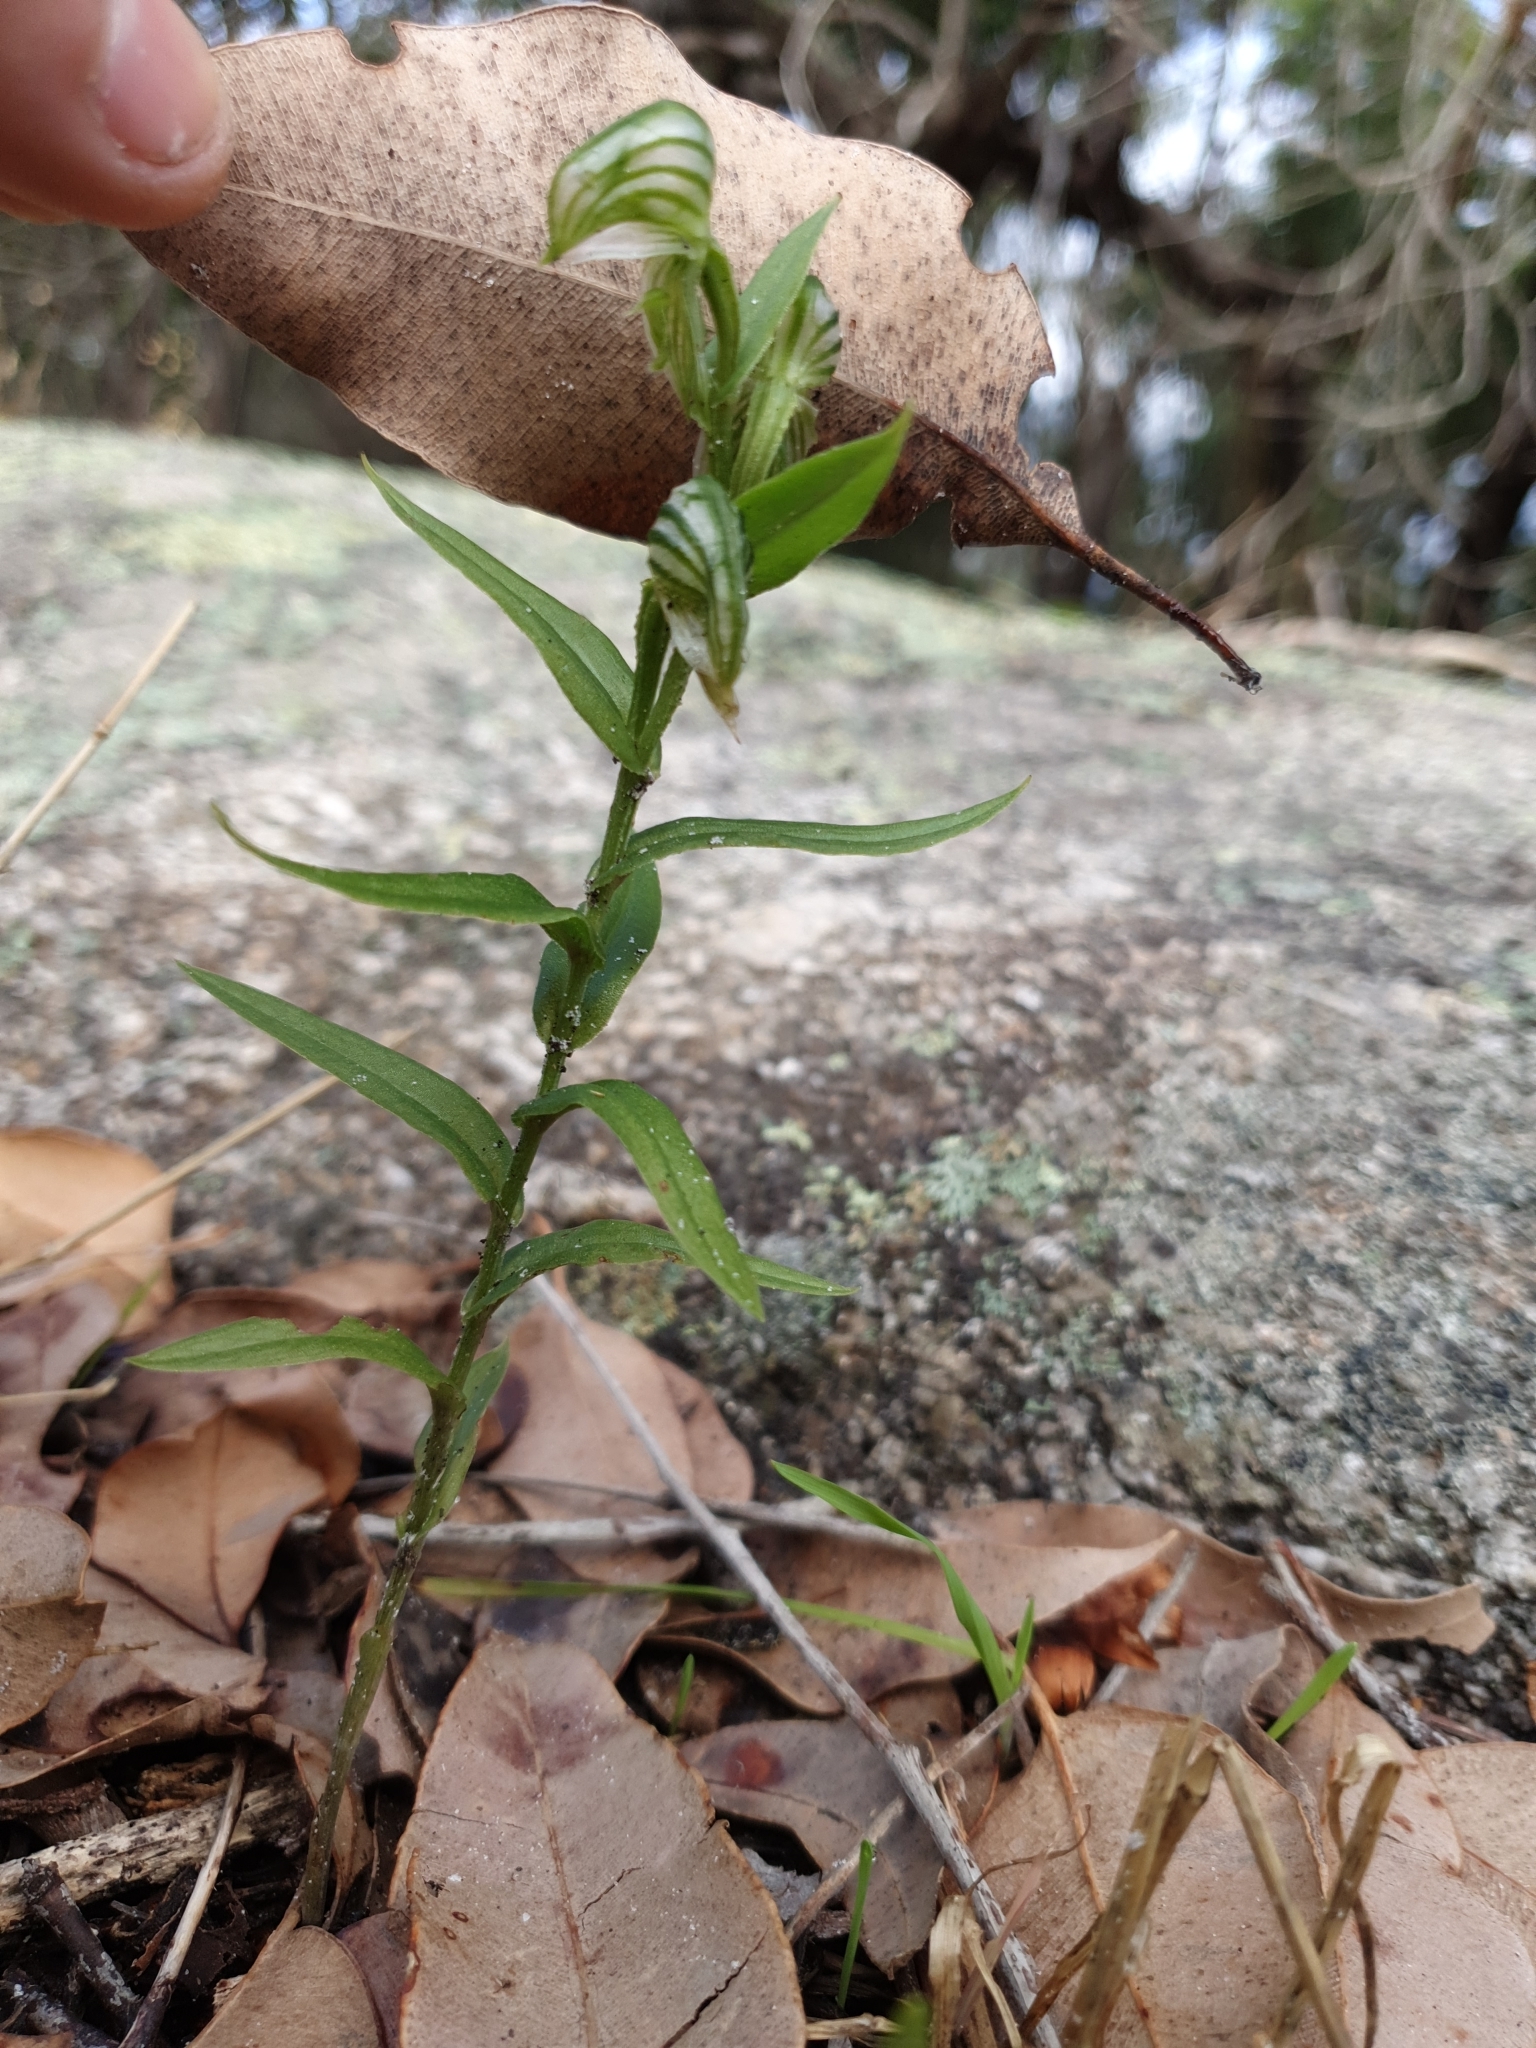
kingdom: Plantae
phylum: Tracheophyta
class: Liliopsida
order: Asparagales
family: Orchidaceae
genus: Pterostylis
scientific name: Pterostylis vittata
